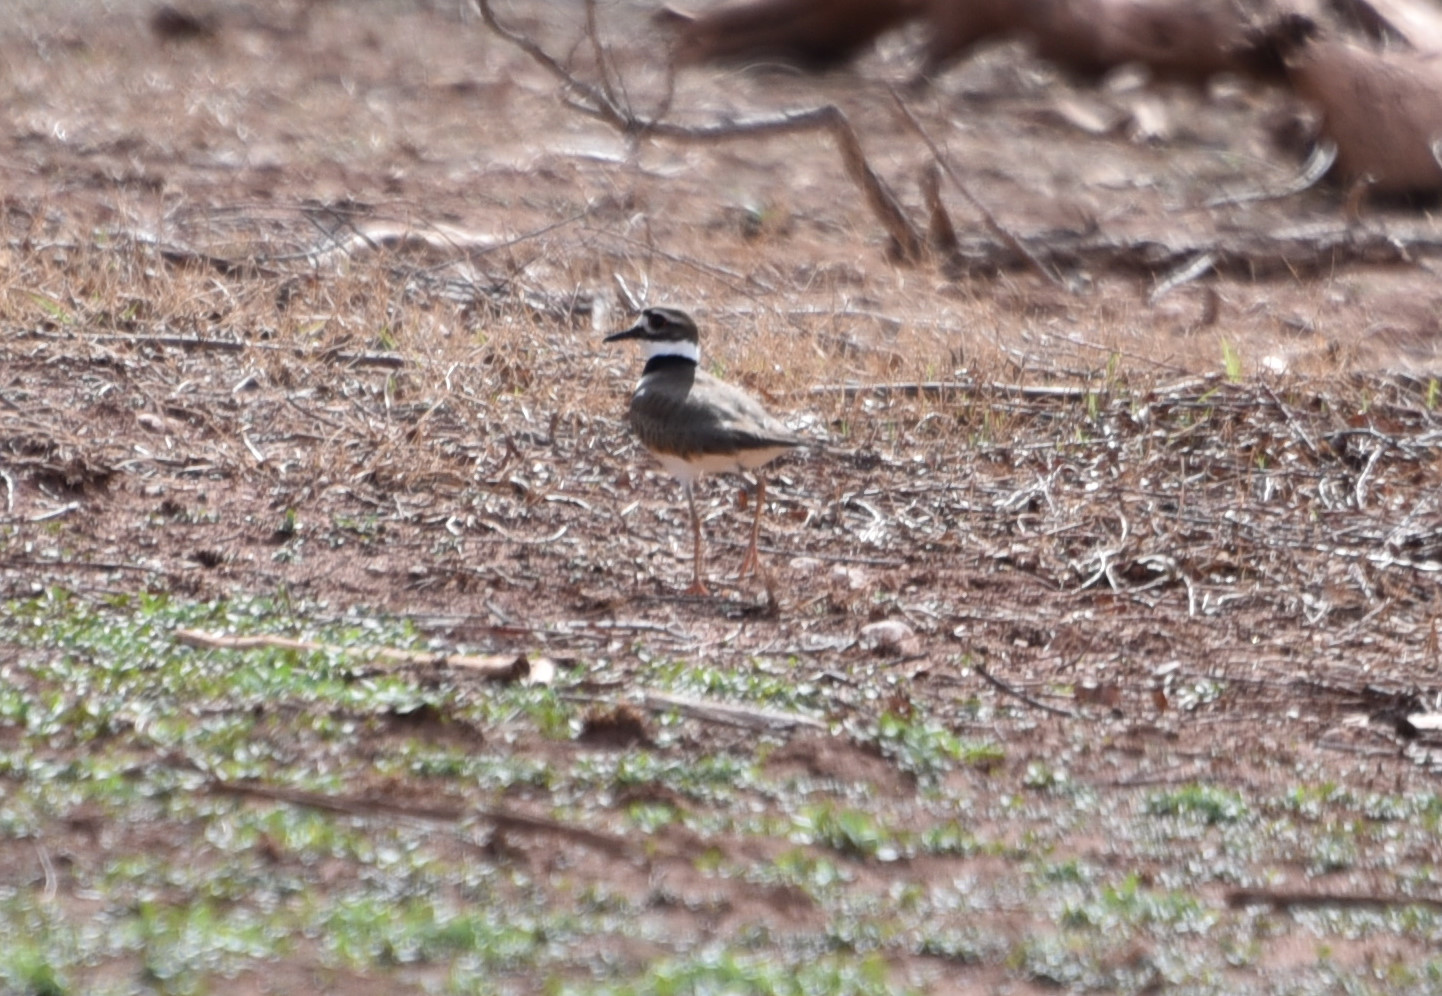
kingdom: Animalia
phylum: Chordata
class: Aves
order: Charadriiformes
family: Charadriidae
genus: Charadrius
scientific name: Charadrius vociferus
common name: Killdeer
